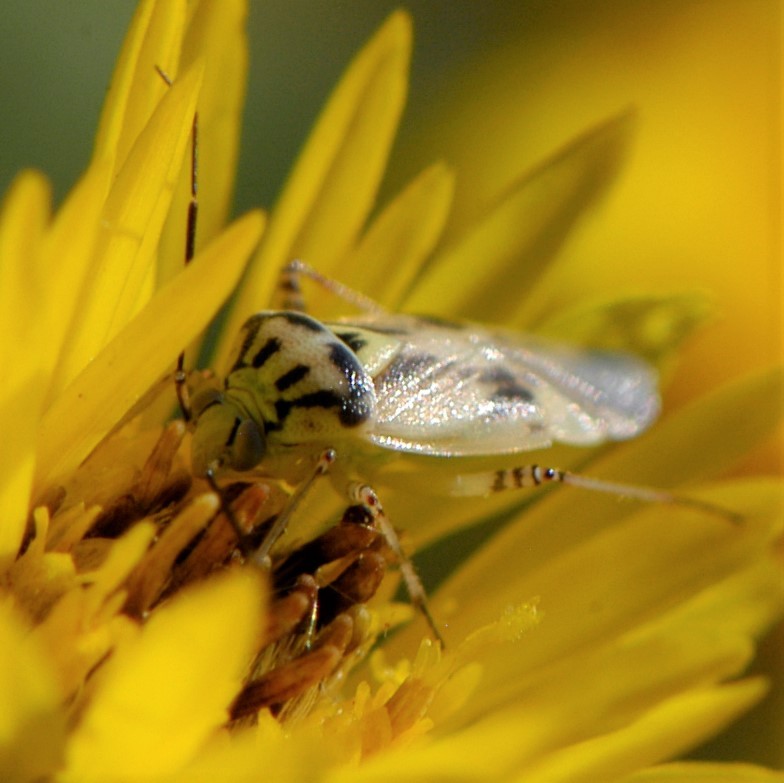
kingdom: Animalia
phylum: Arthropoda
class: Insecta
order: Hemiptera
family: Miridae
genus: Lygus
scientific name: Lygus atriflavus
